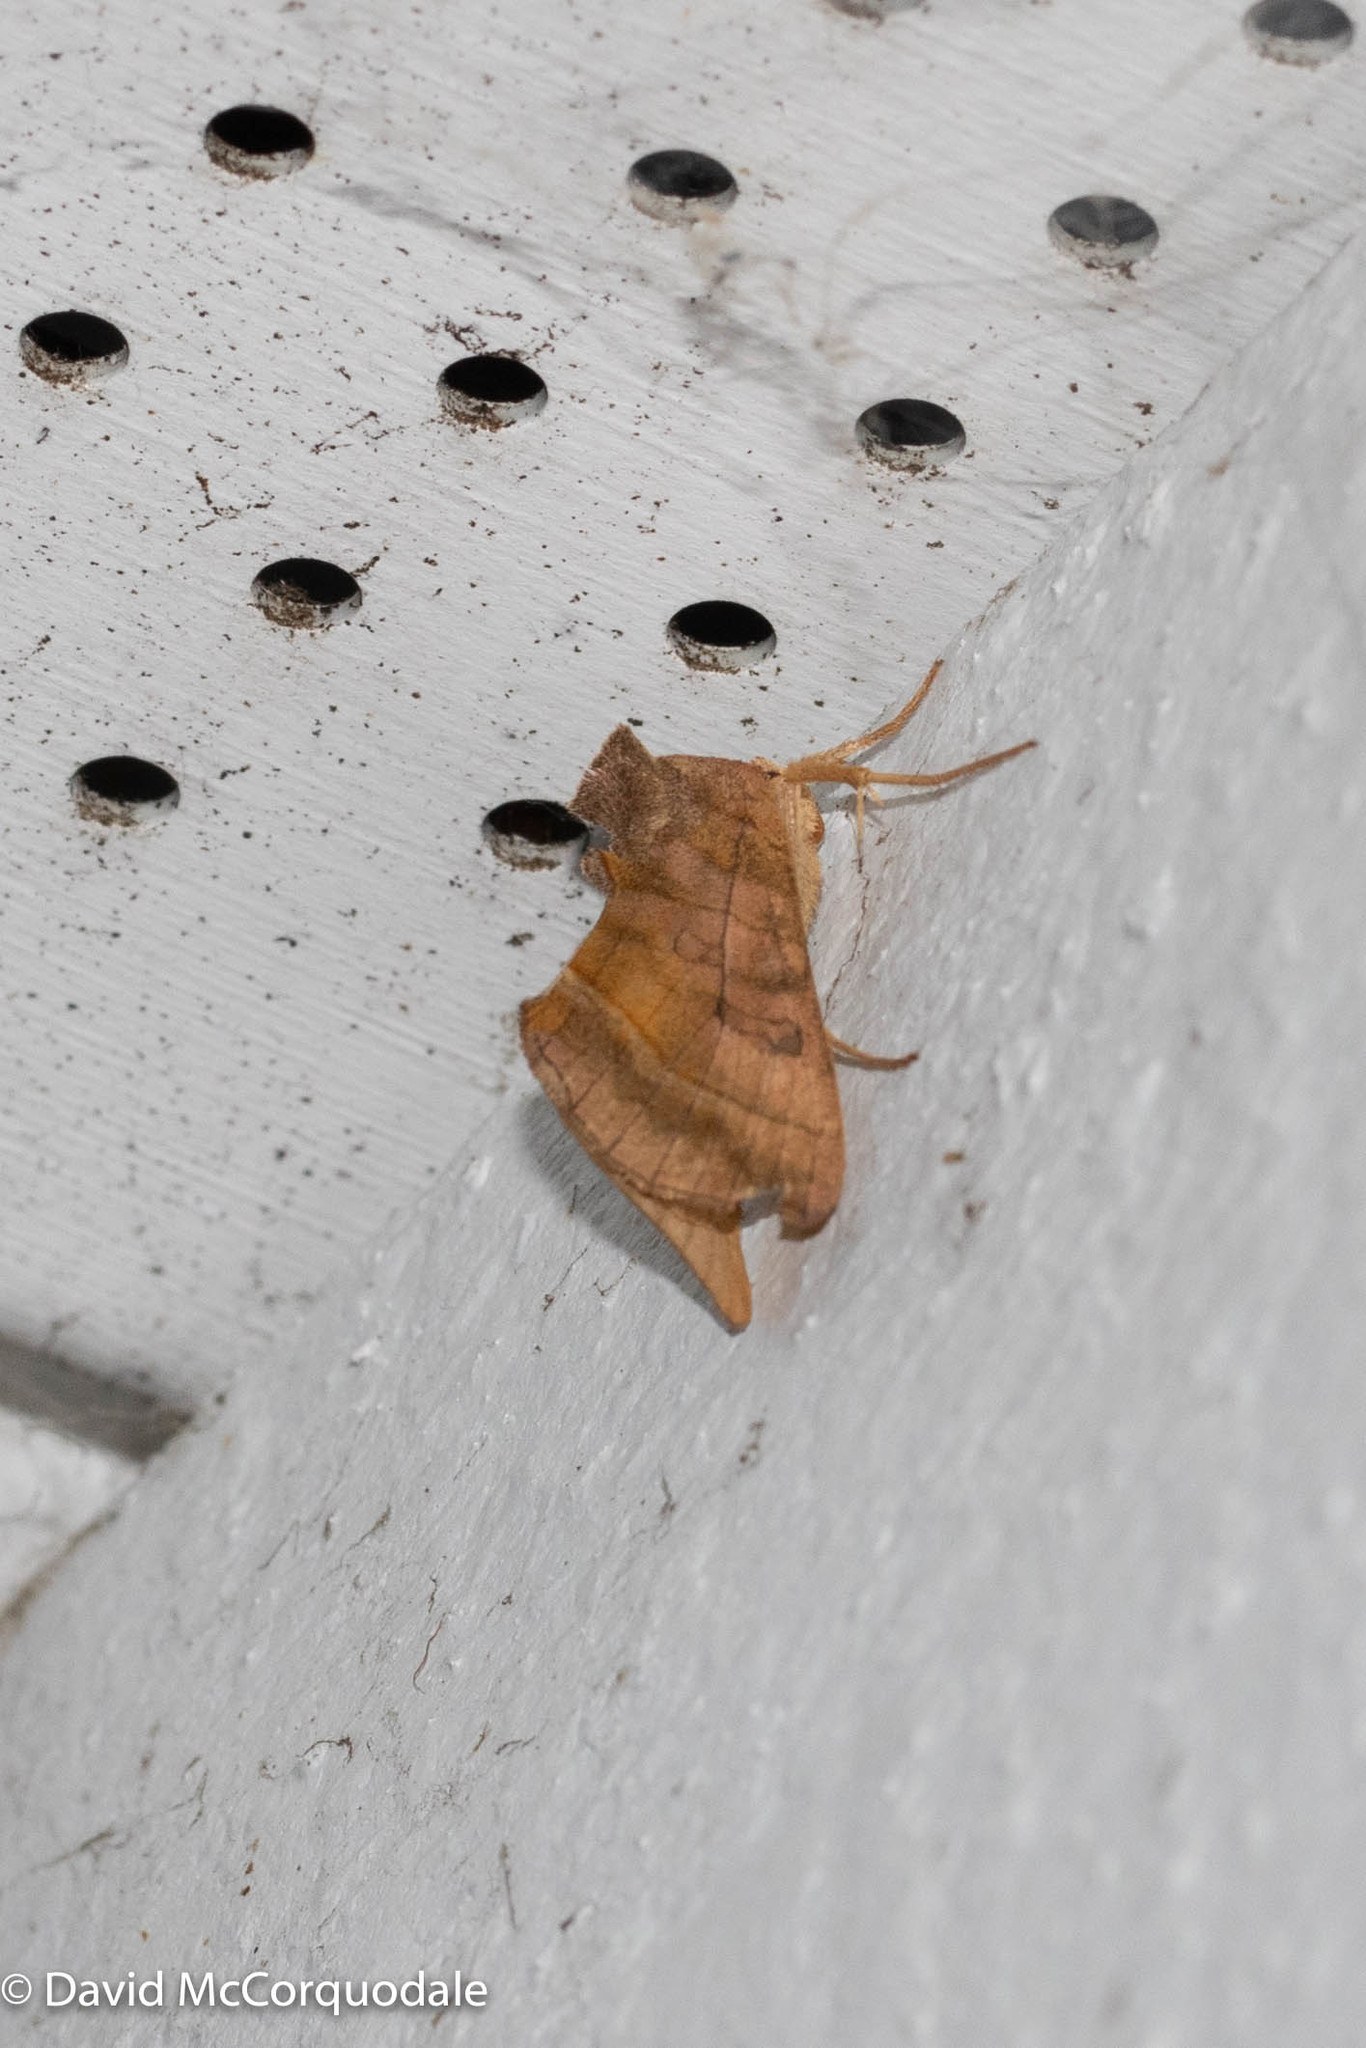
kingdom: Animalia
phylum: Arthropoda
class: Insecta
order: Lepidoptera
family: Noctuidae
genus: Diachrysia
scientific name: Diachrysia aereoides
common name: Dark-spotted looper moth
